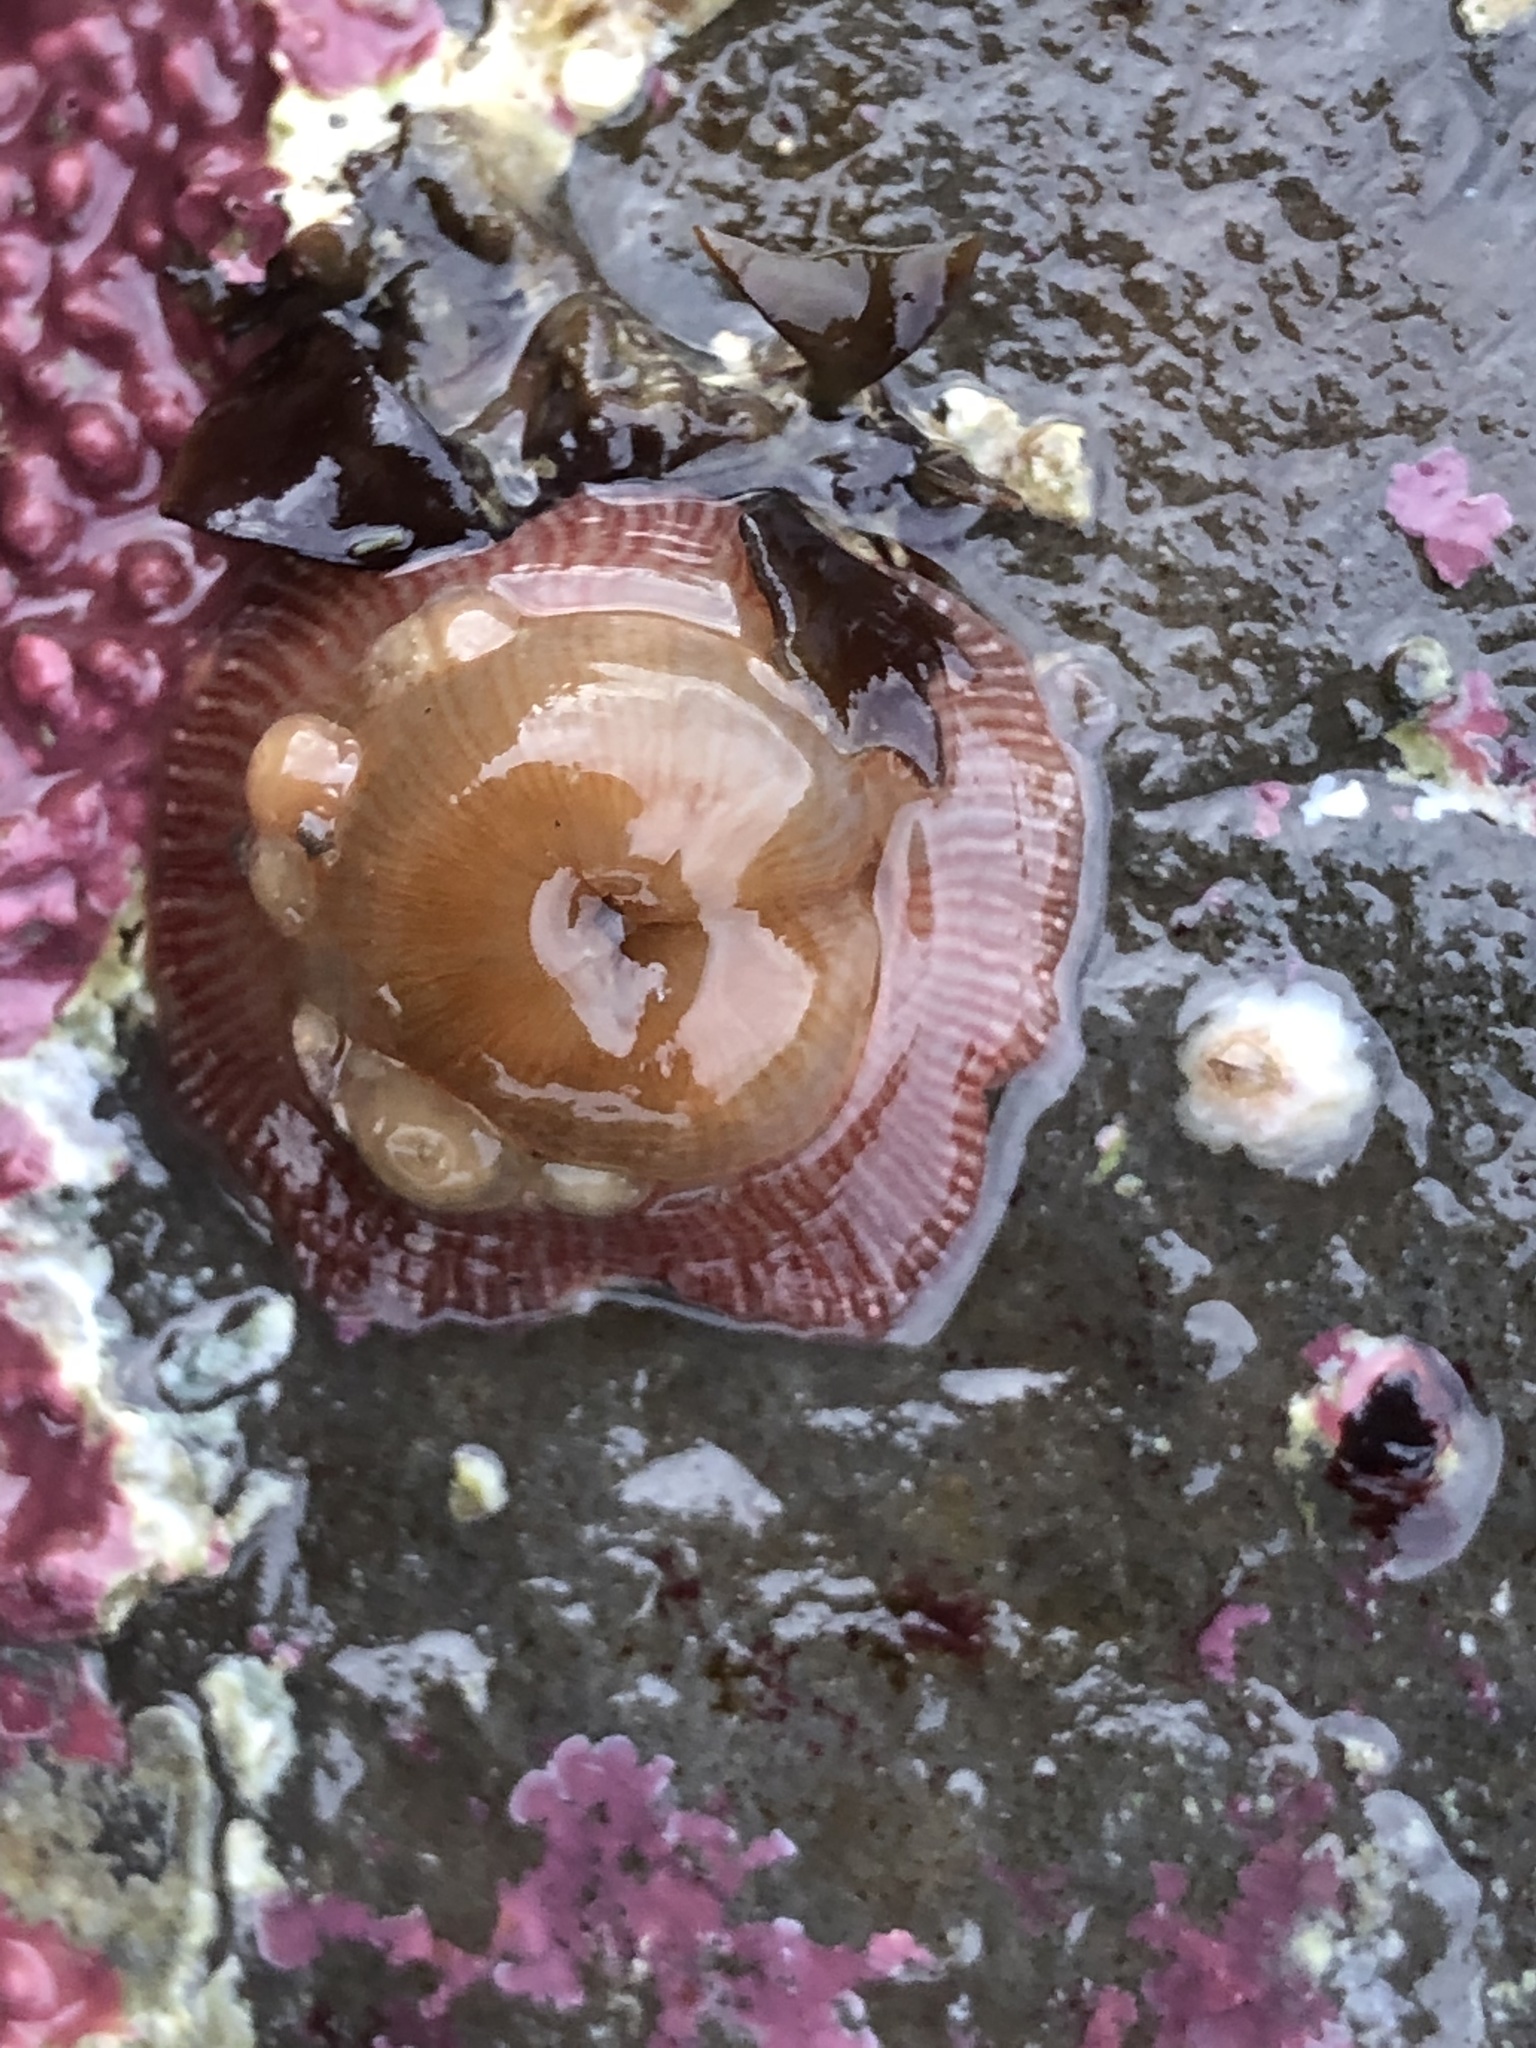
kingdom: Animalia
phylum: Cnidaria
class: Anthozoa
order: Actiniaria
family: Actiniidae
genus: Epiactis
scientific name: Epiactis prolifera
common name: Brooding anemone
